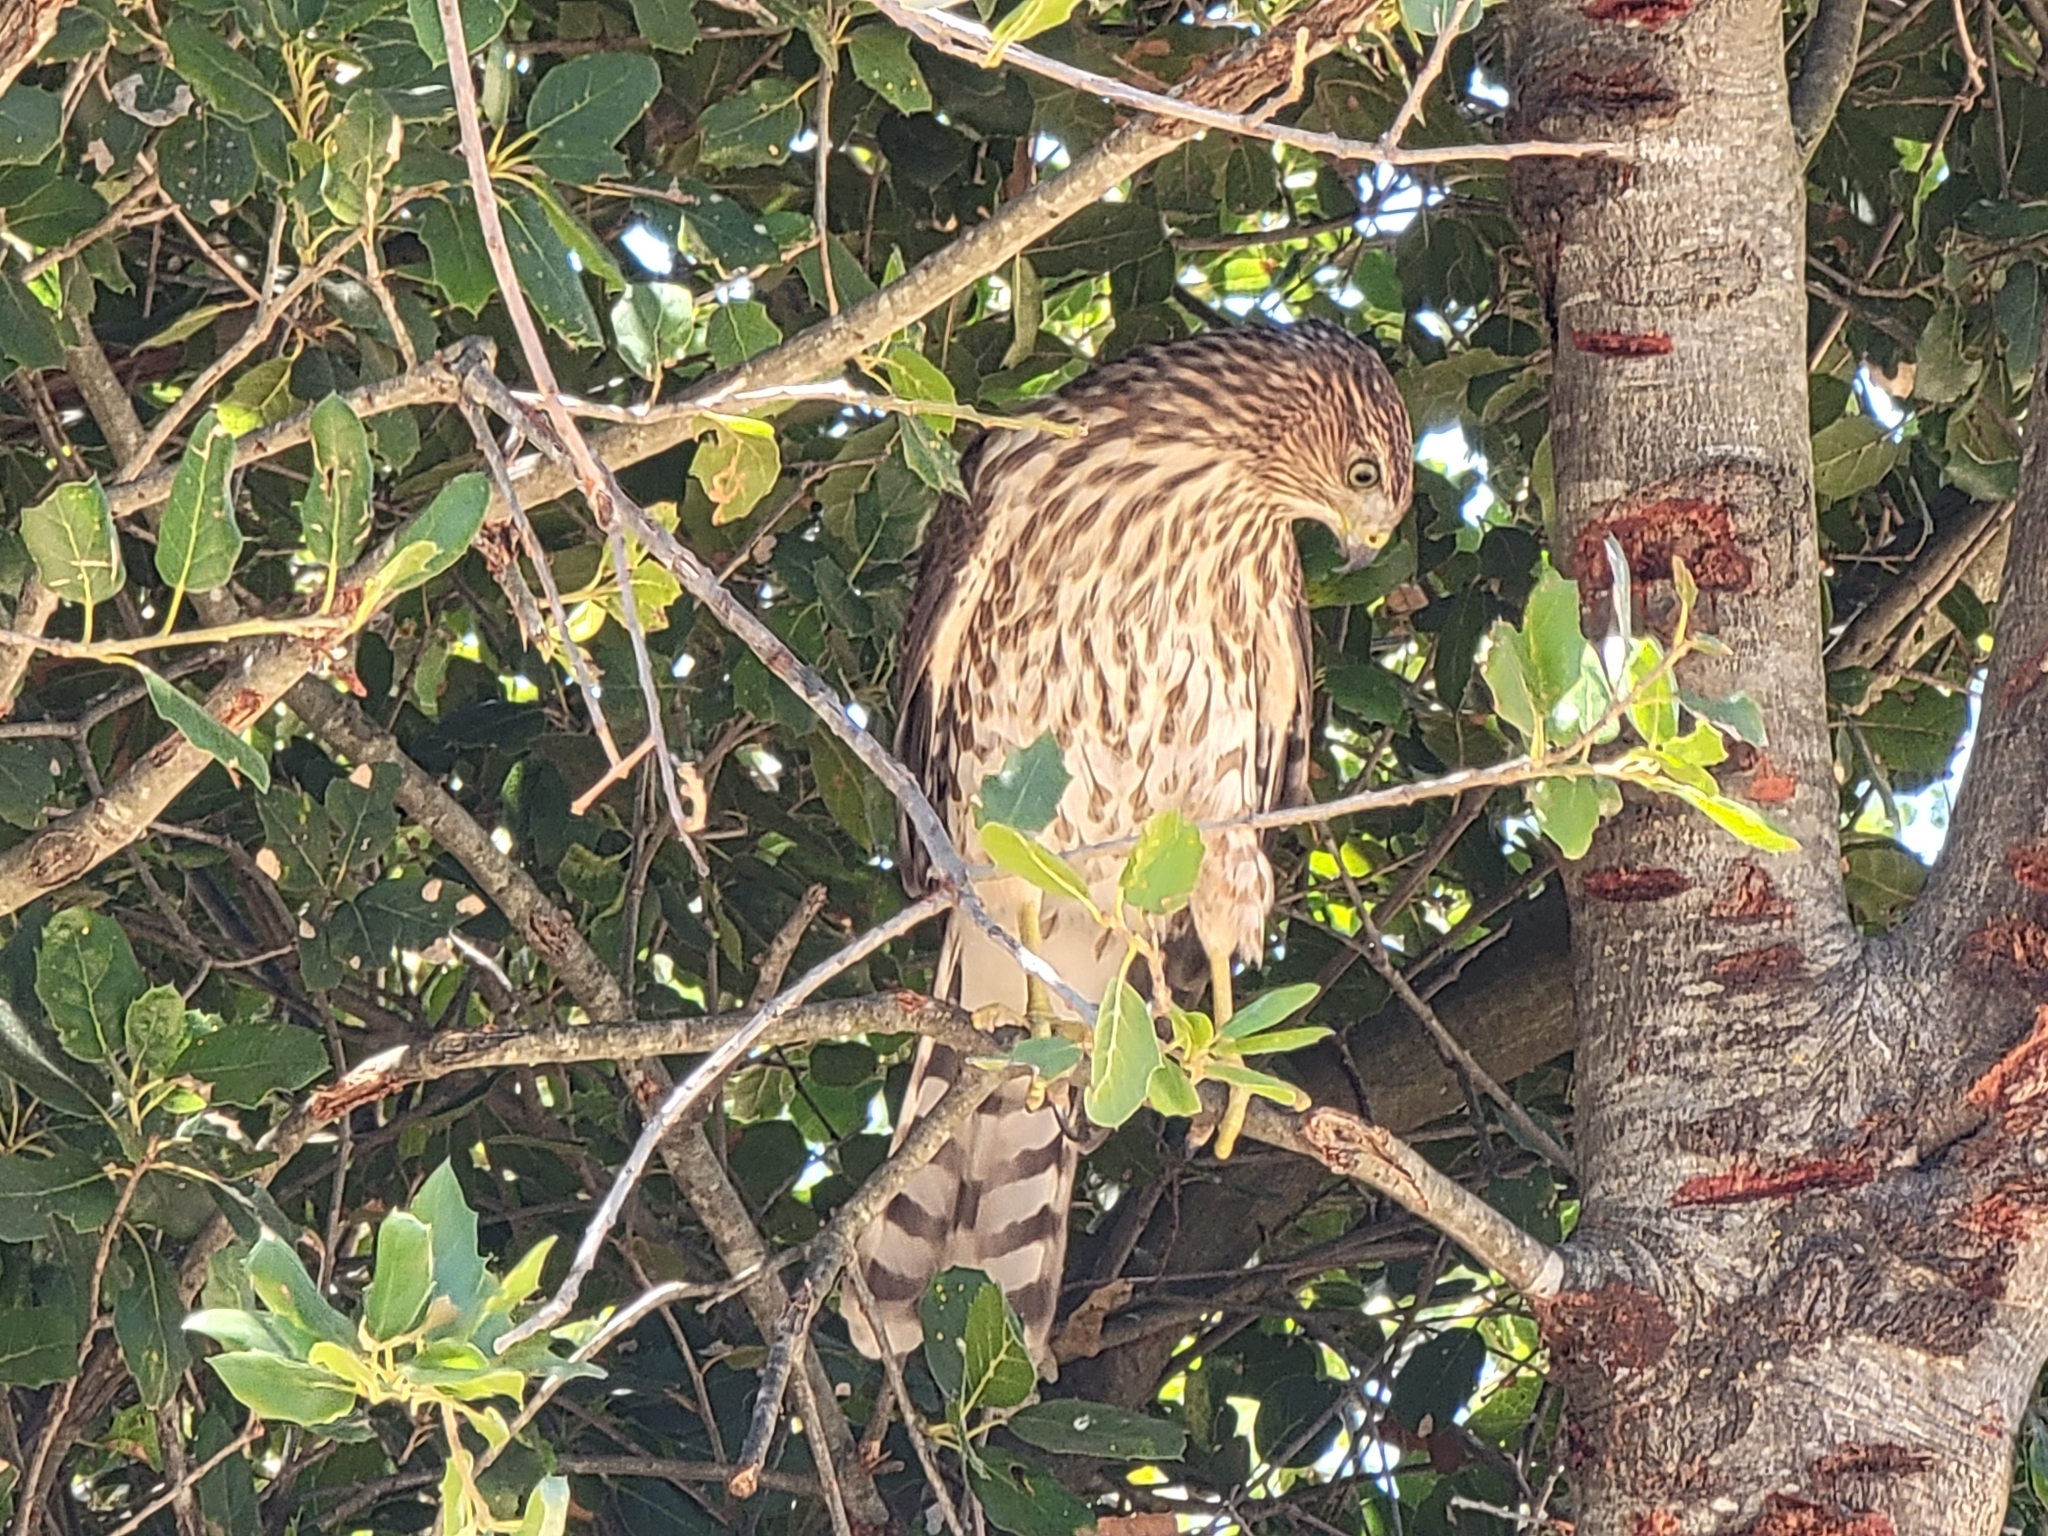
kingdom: Animalia
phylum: Chordata
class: Aves
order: Accipitriformes
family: Accipitridae
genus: Accipiter
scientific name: Accipiter cooperii
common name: Cooper's hawk
